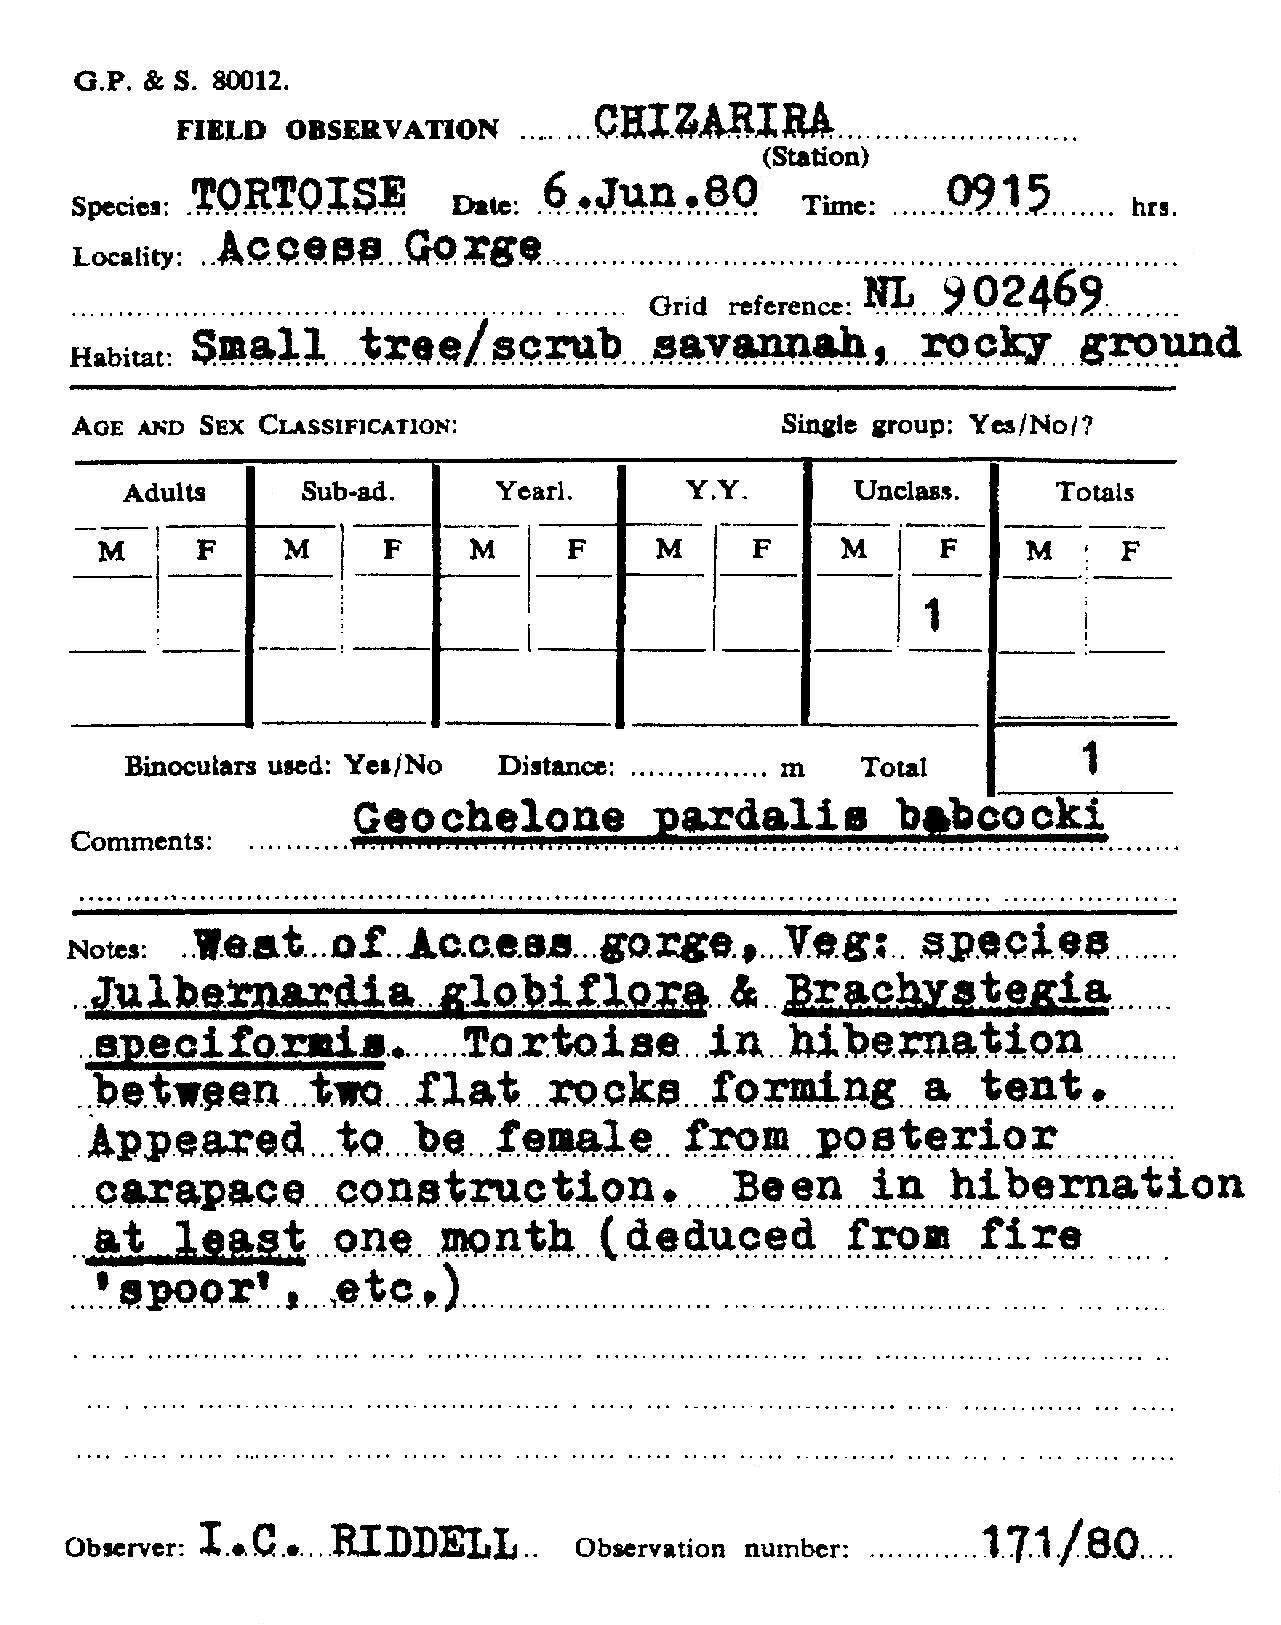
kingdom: Animalia
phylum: Chordata
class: Testudines
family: Testudinidae
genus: Stigmochelys
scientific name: Stigmochelys pardalis
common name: Leopard tortoise
